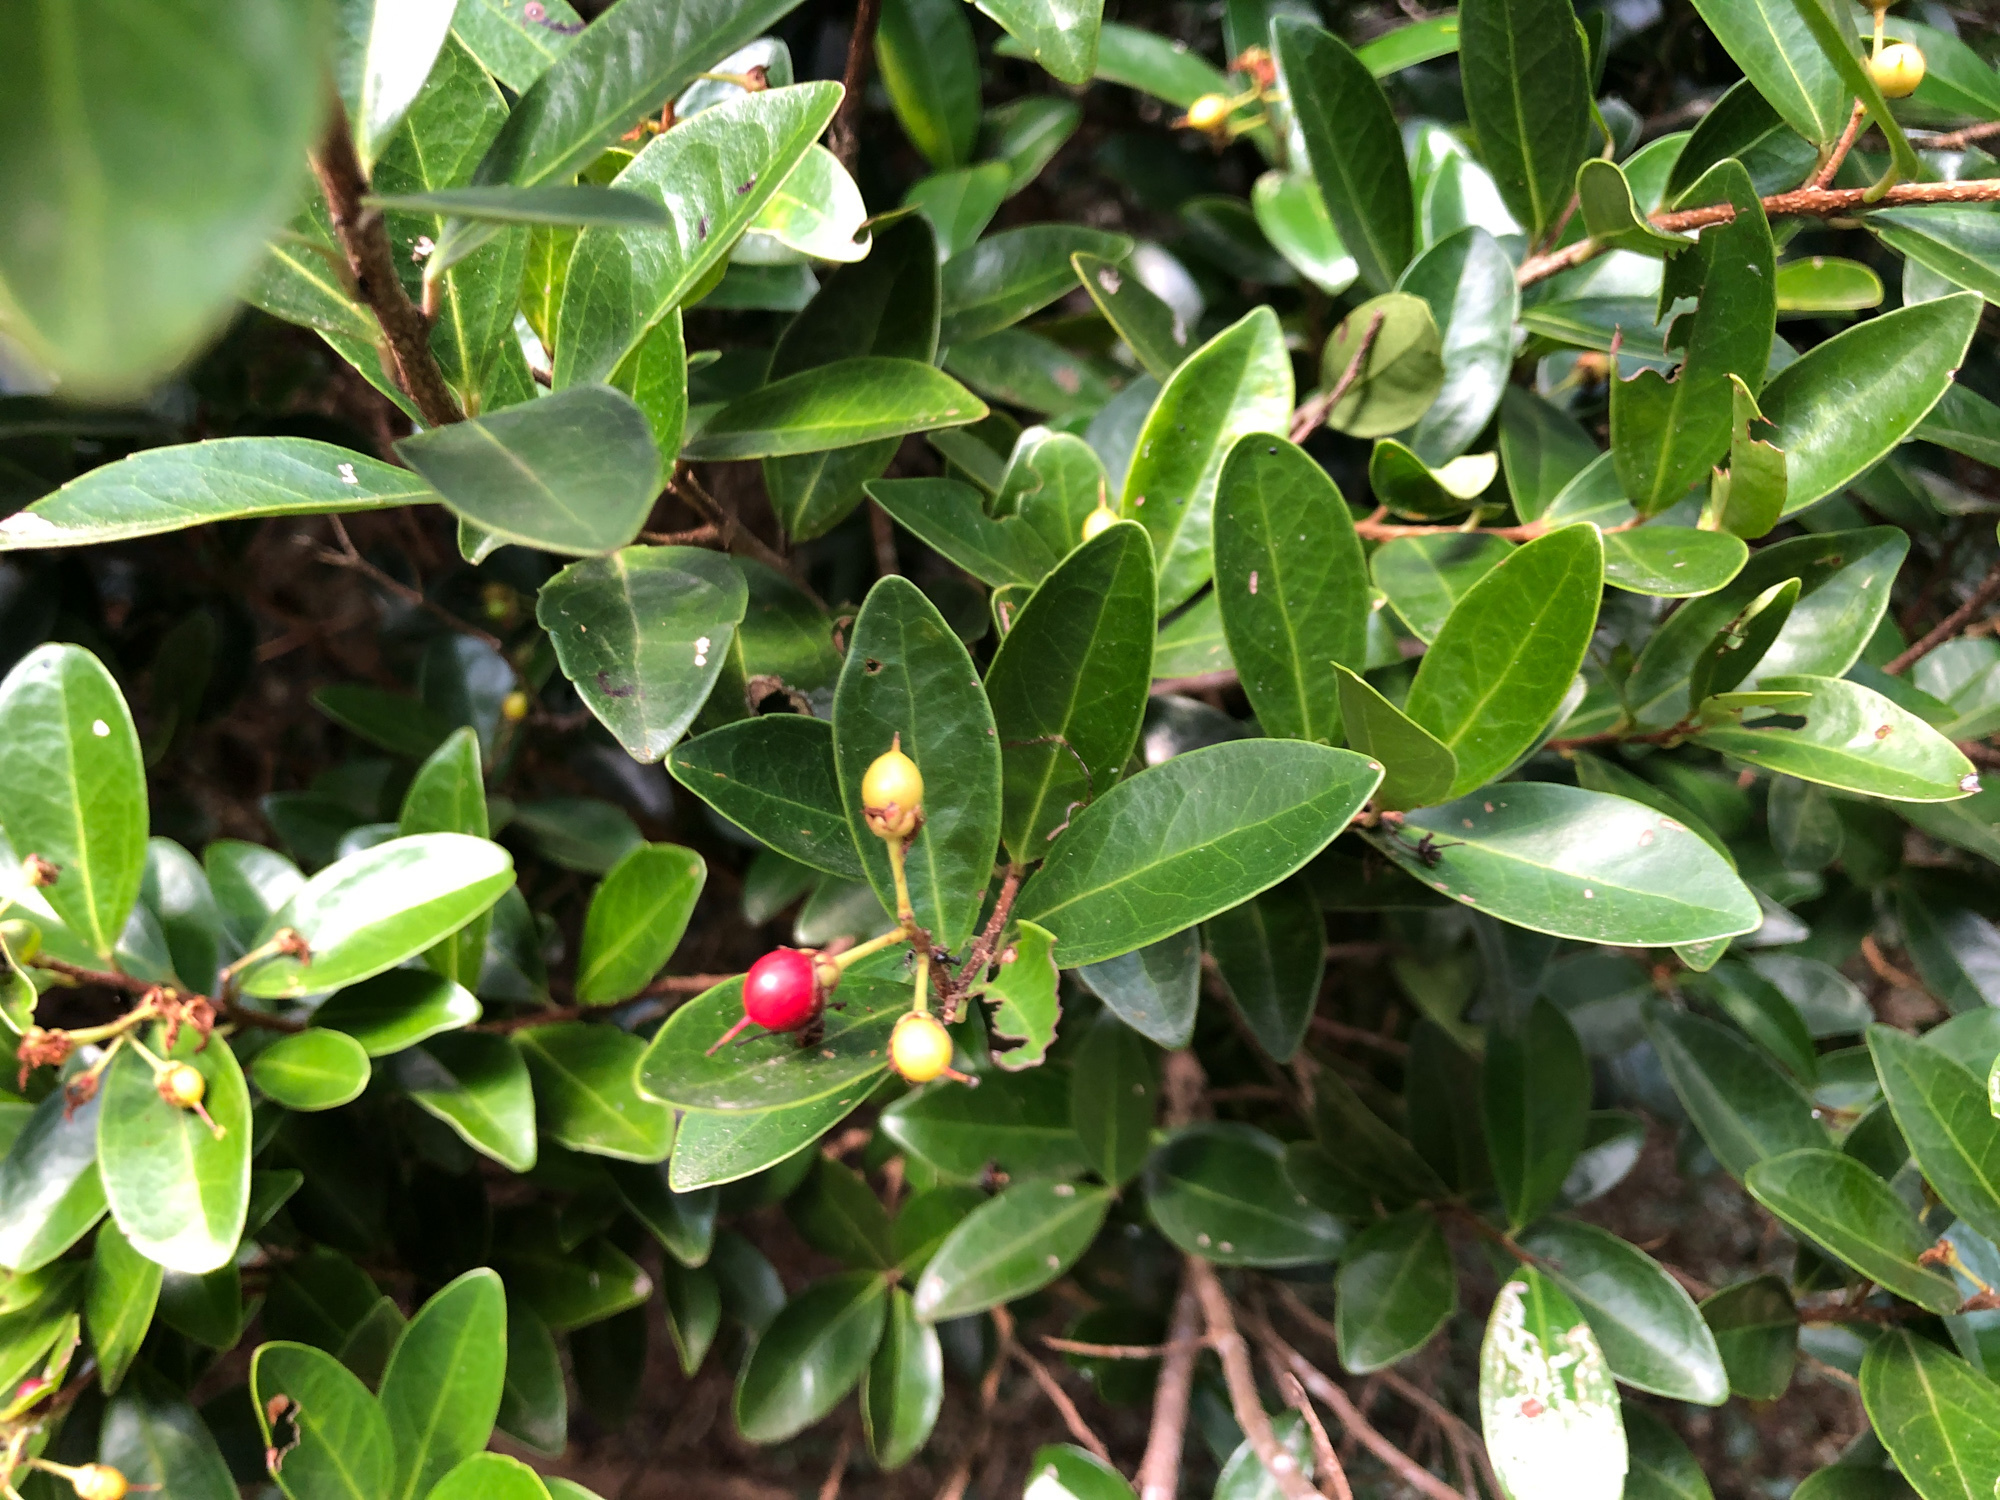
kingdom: Plantae
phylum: Tracheophyta
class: Magnoliopsida
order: Malpighiales
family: Salicaceae
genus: Scolopia
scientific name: Scolopia oldhamii
